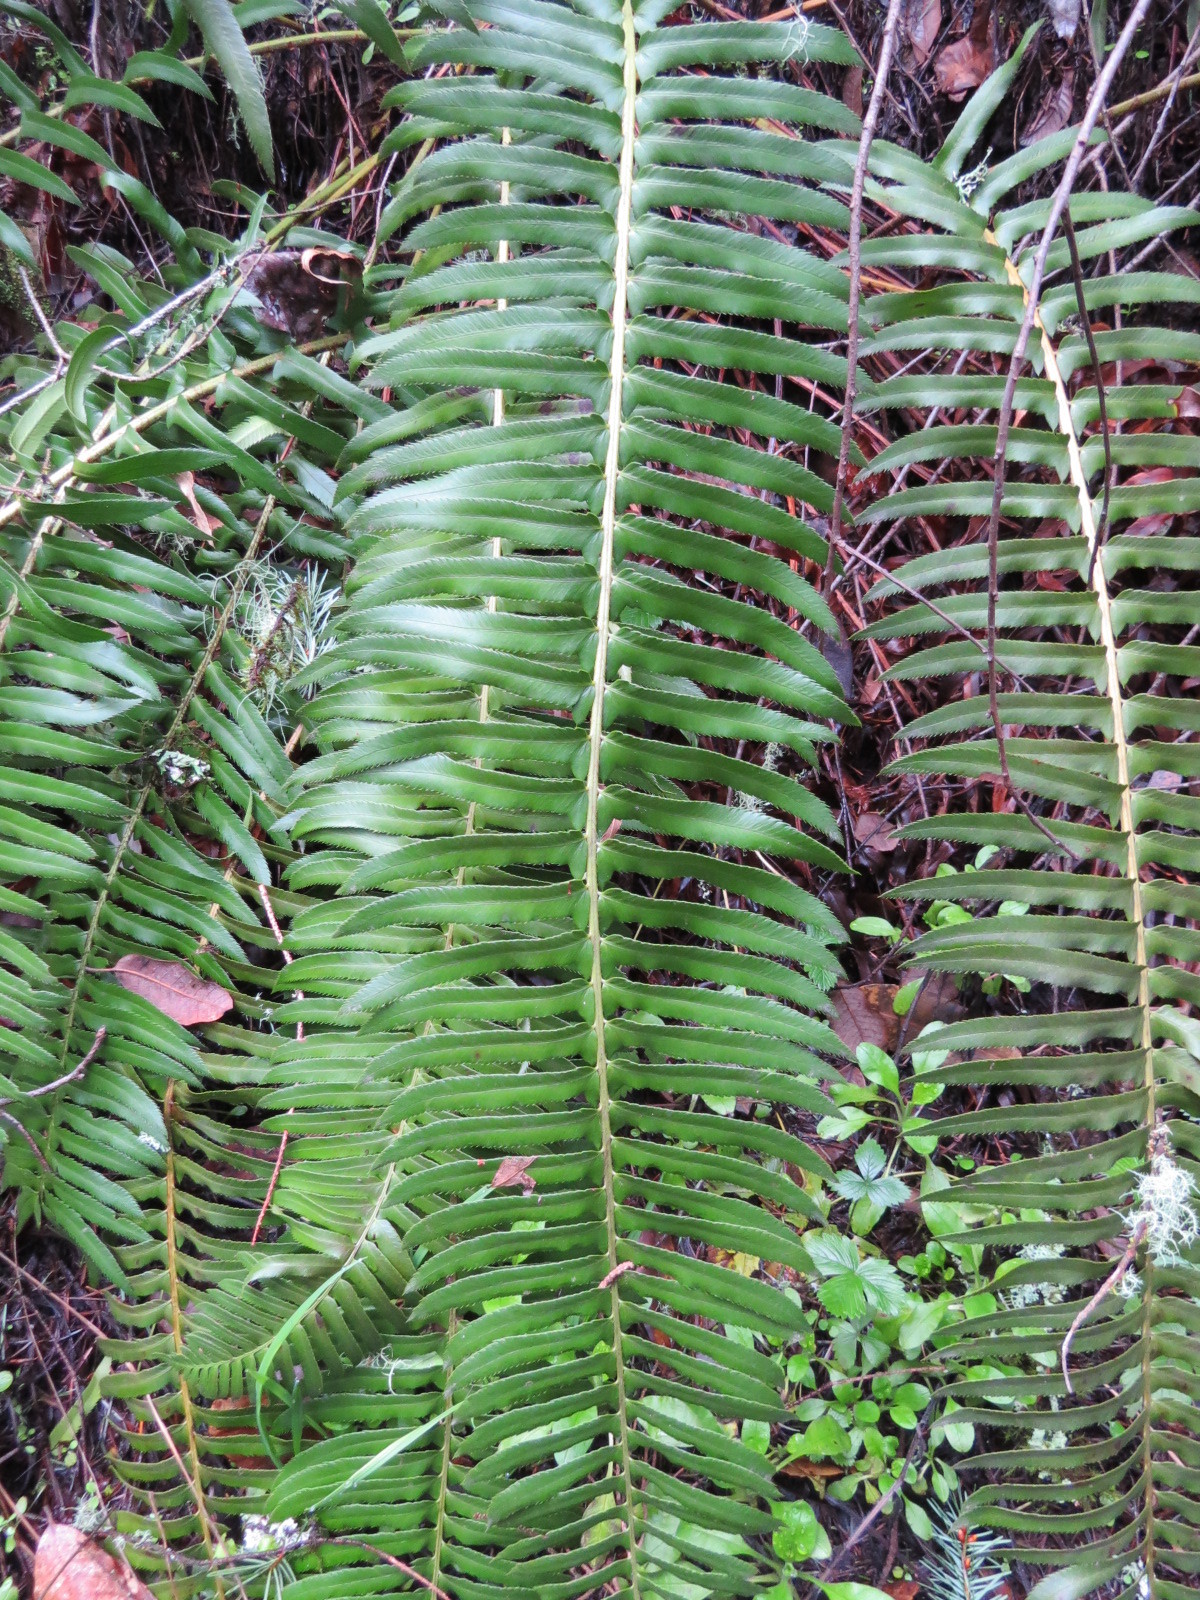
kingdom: Plantae
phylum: Tracheophyta
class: Polypodiopsida
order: Polypodiales
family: Dryopteridaceae
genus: Polystichum
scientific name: Polystichum munitum
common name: Western sword-fern
